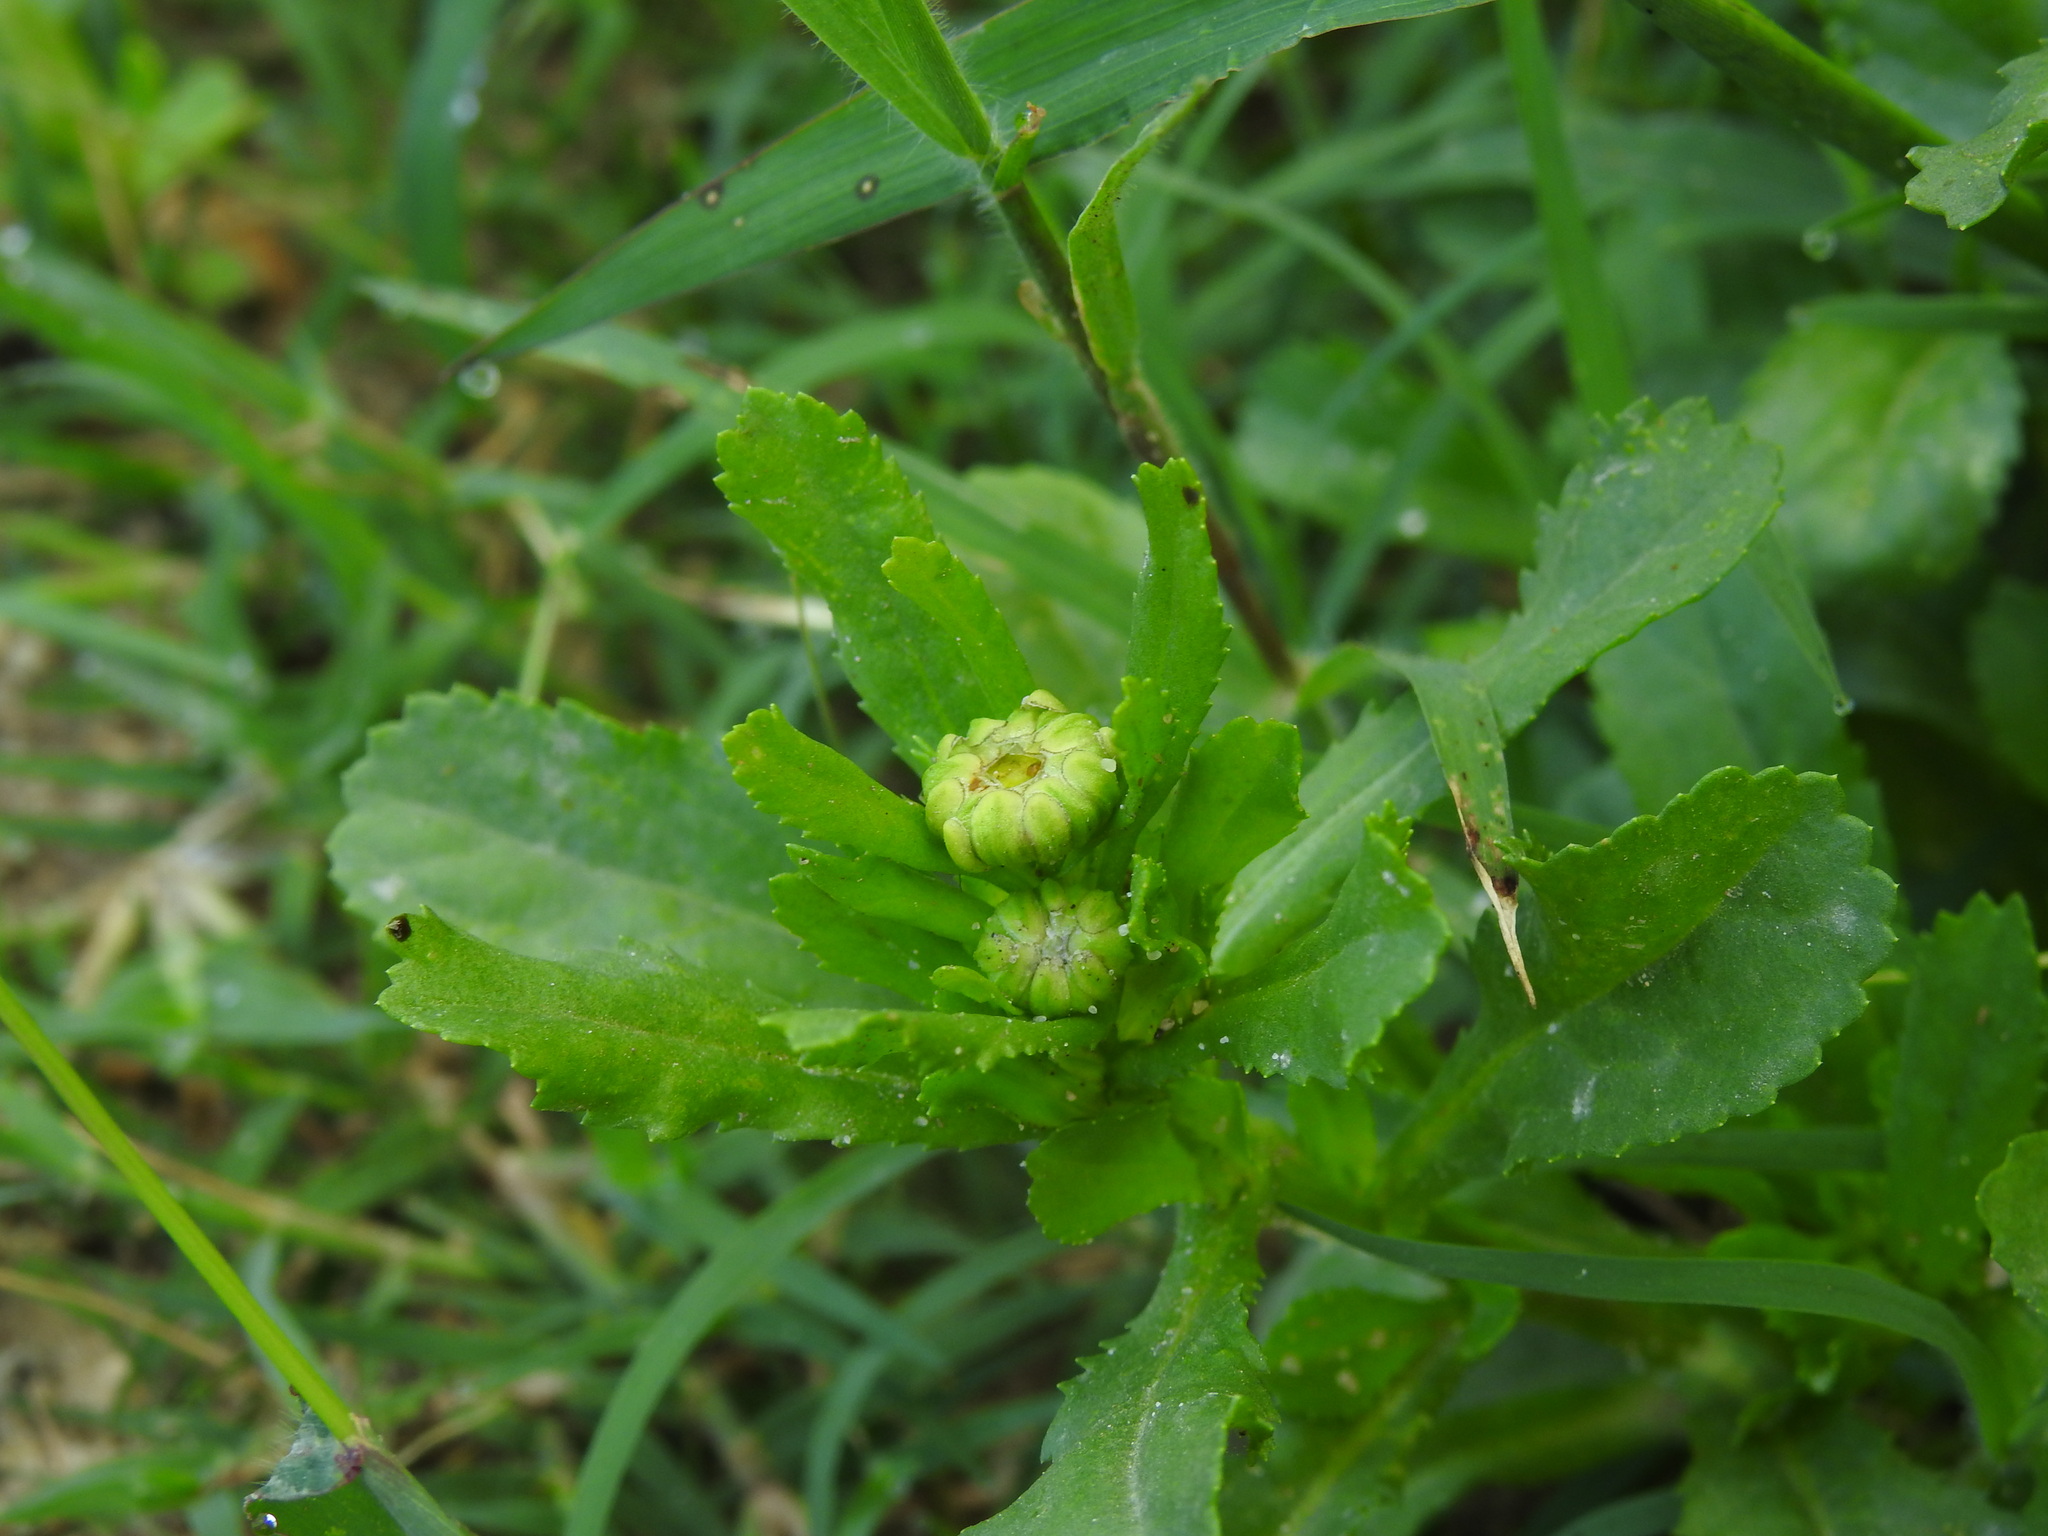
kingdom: Plantae
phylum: Tracheophyta
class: Magnoliopsida
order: Asterales
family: Asteraceae
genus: Coleostephus
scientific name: Coleostephus myconis
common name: Mediterranean marigold
